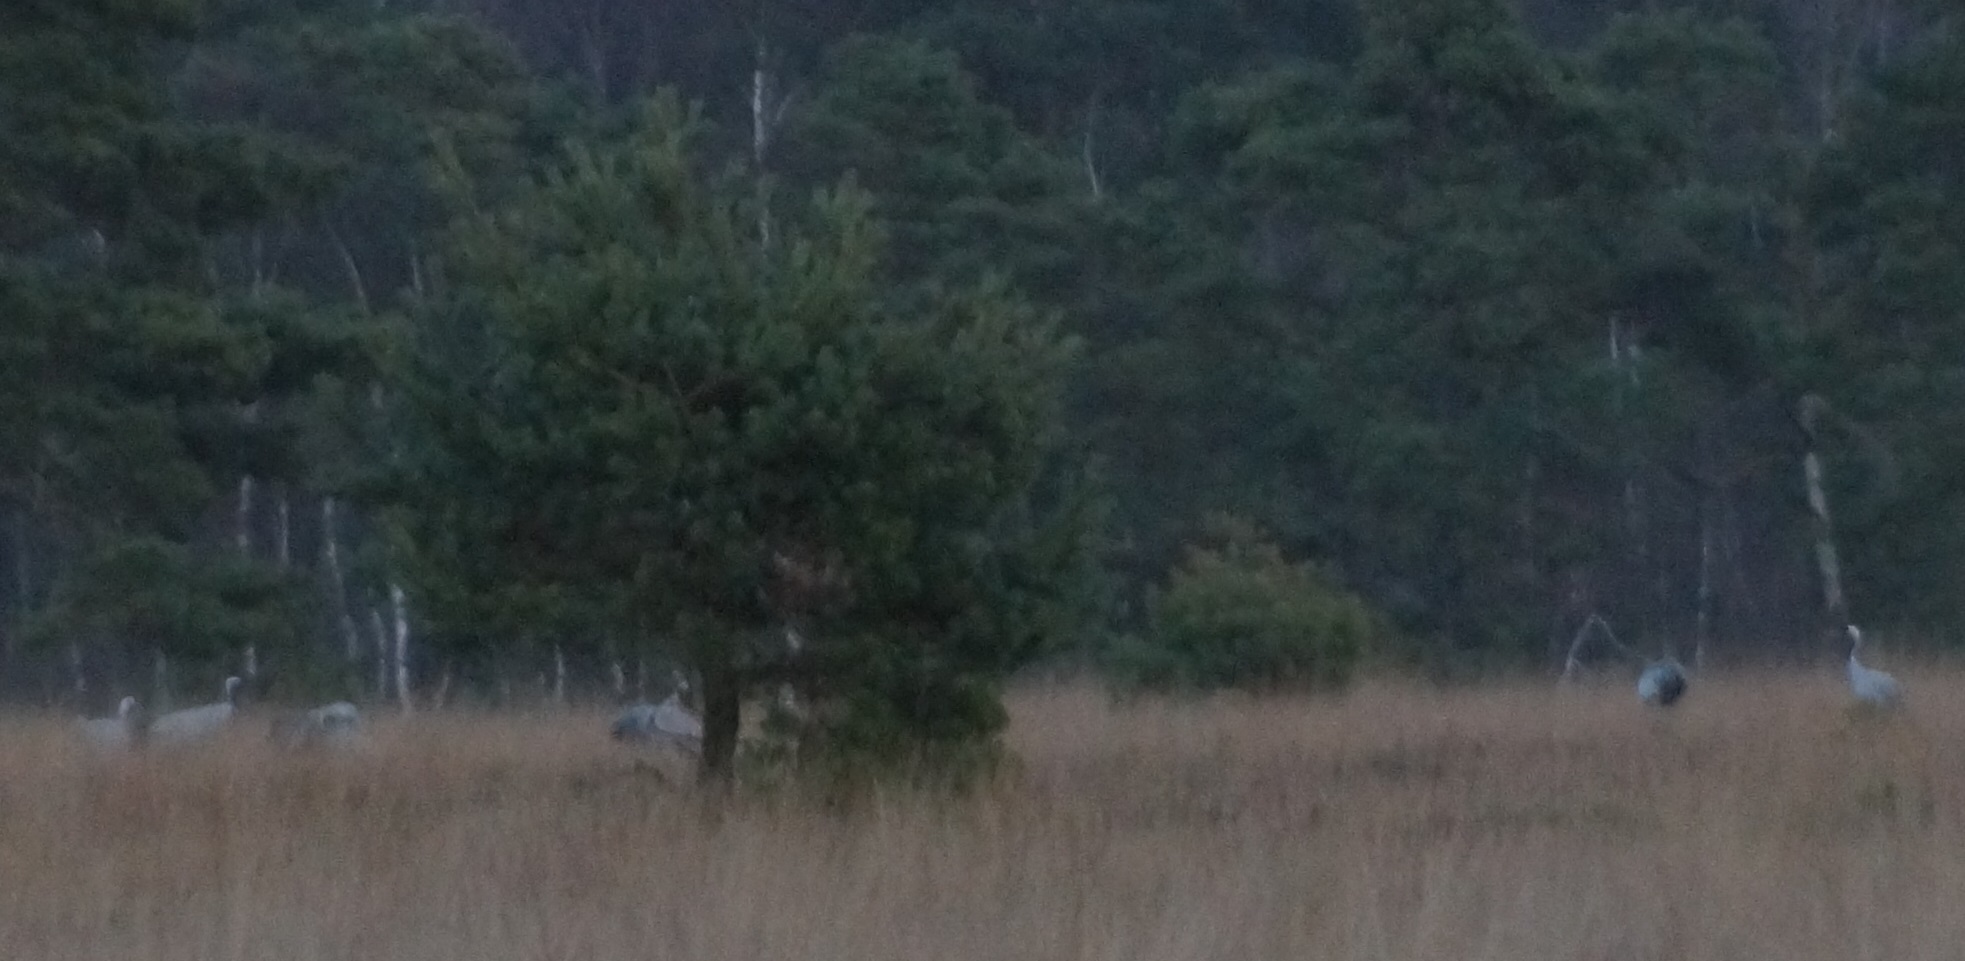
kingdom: Animalia
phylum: Chordata
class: Aves
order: Gruiformes
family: Gruidae
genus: Grus
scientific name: Grus grus
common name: Common crane
